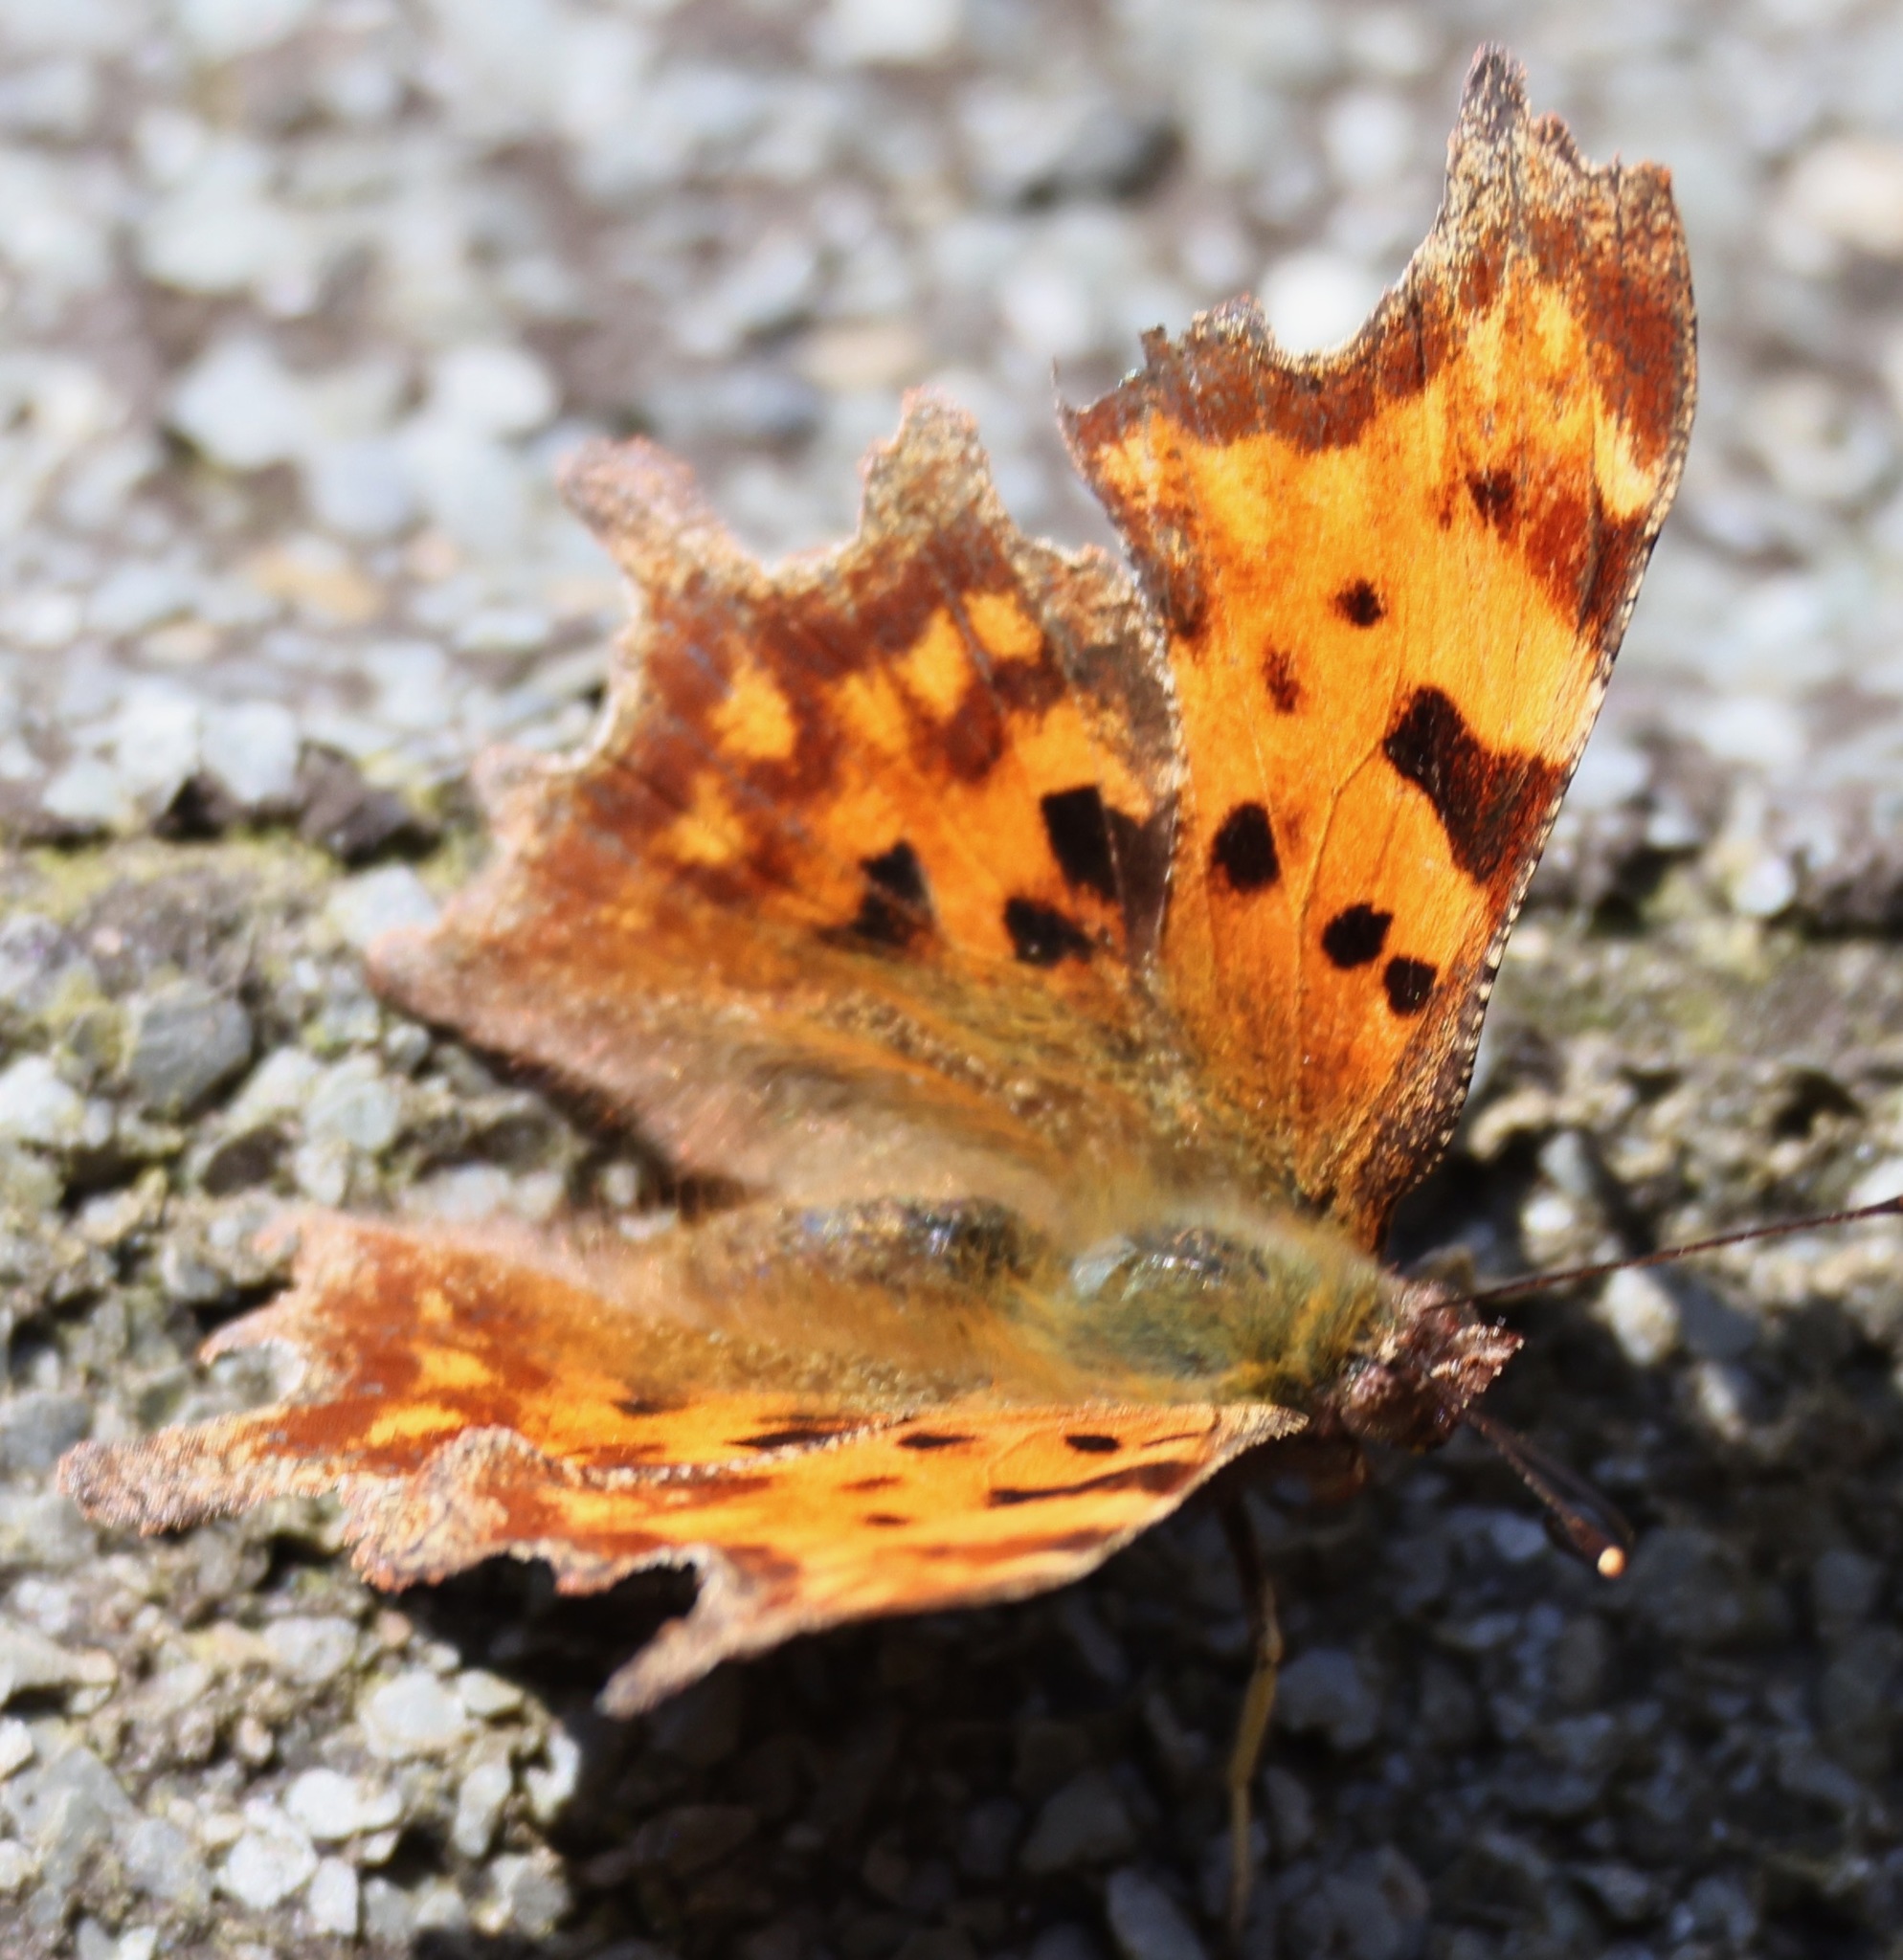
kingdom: Animalia
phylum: Arthropoda
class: Insecta
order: Lepidoptera
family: Nymphalidae
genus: Polygonia
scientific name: Polygonia c-album
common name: Comma
